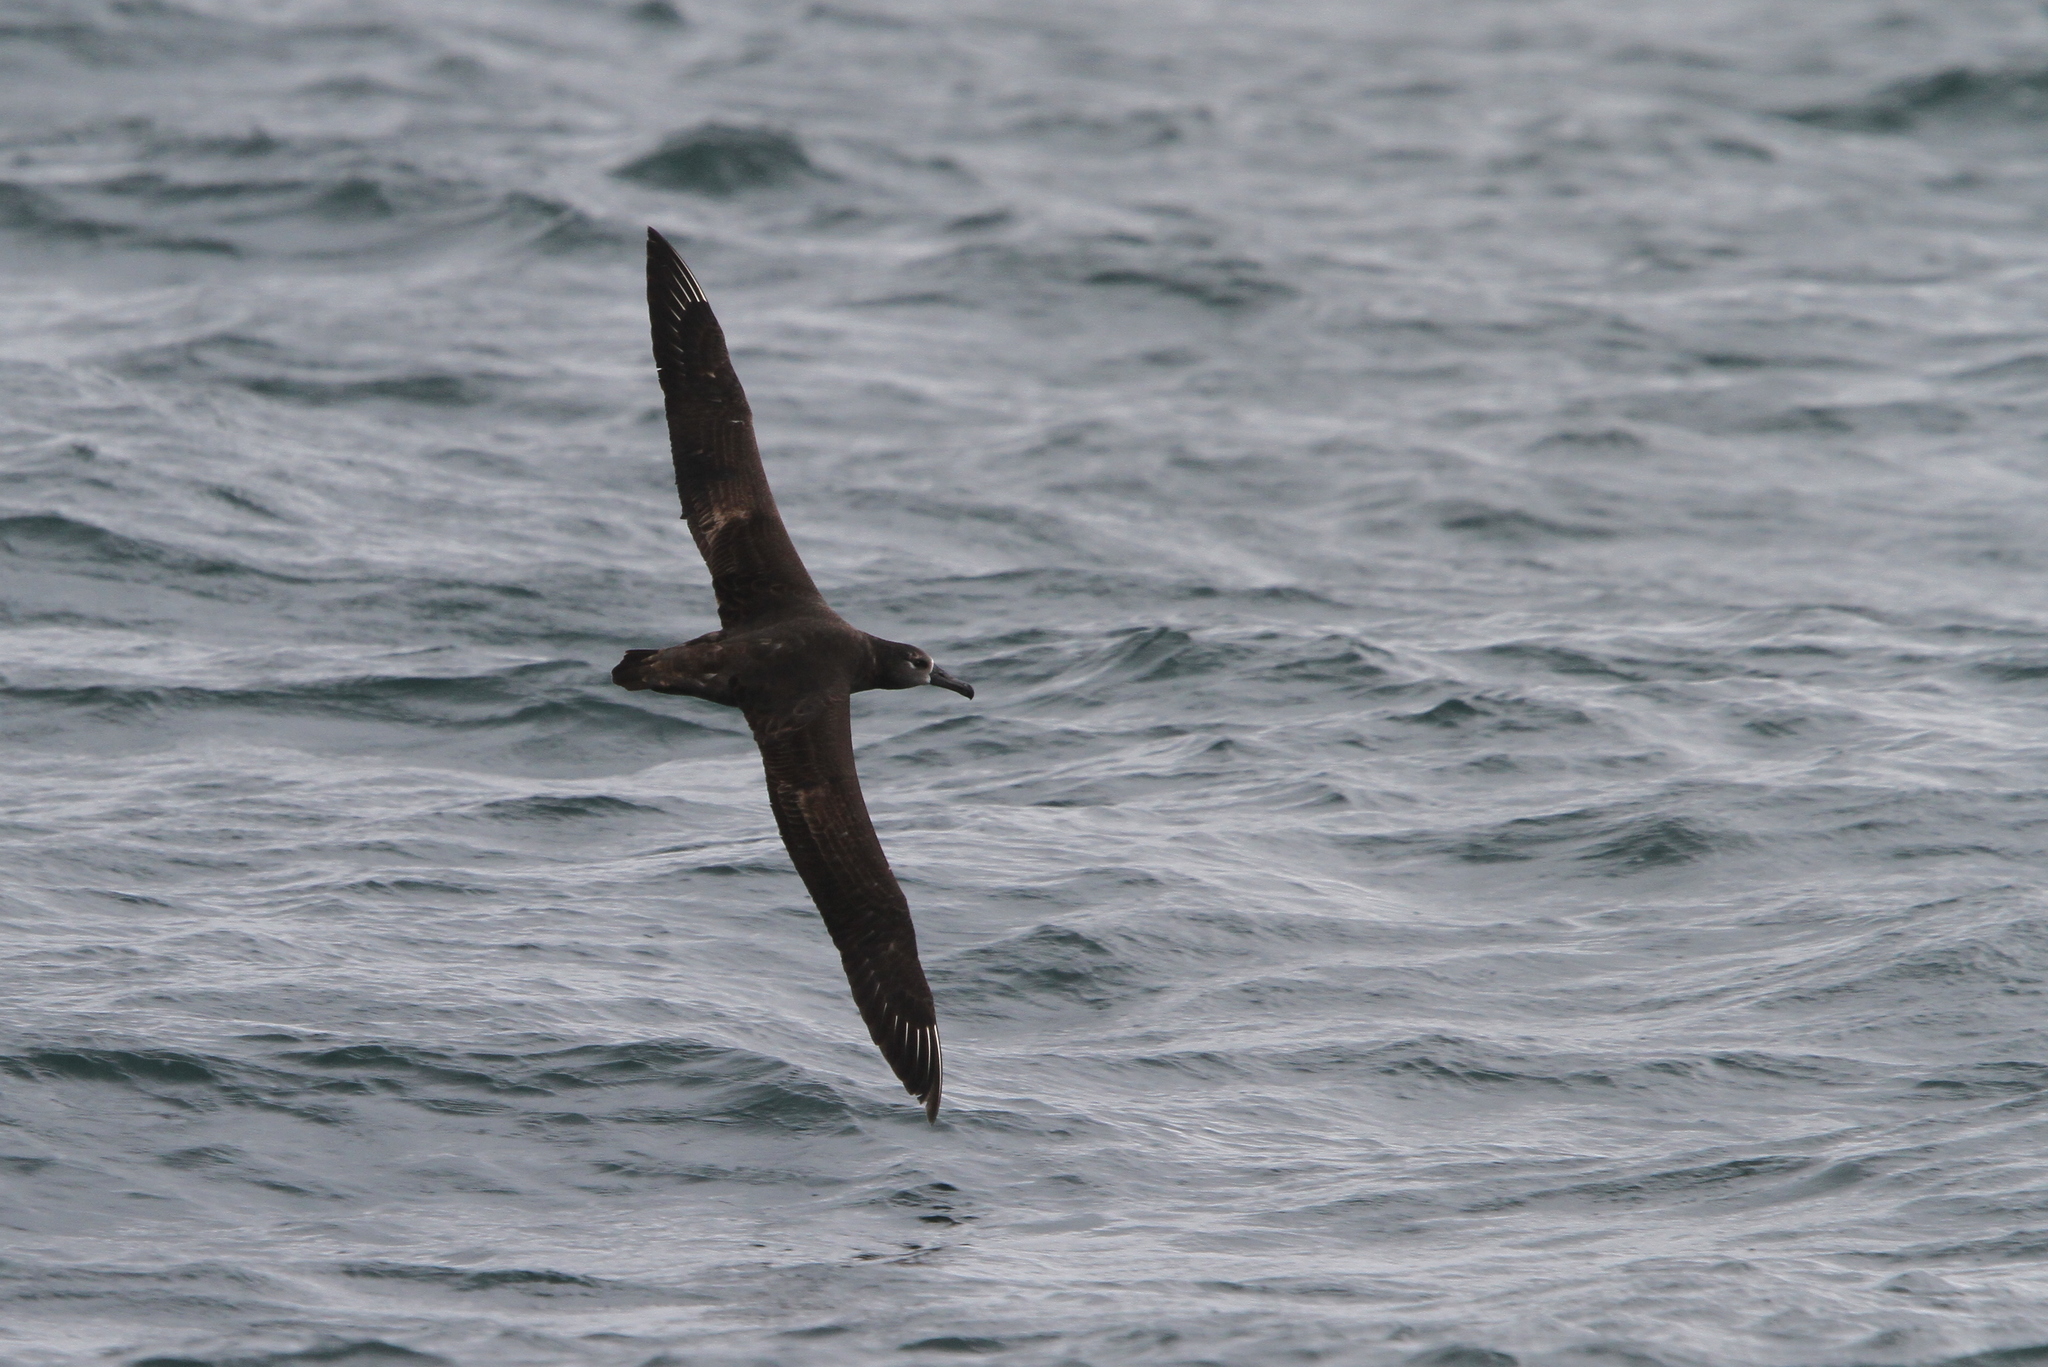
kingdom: Animalia
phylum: Chordata
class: Aves
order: Procellariiformes
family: Diomedeidae
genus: Phoebastria
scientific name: Phoebastria nigripes
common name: Black-footed albatross
